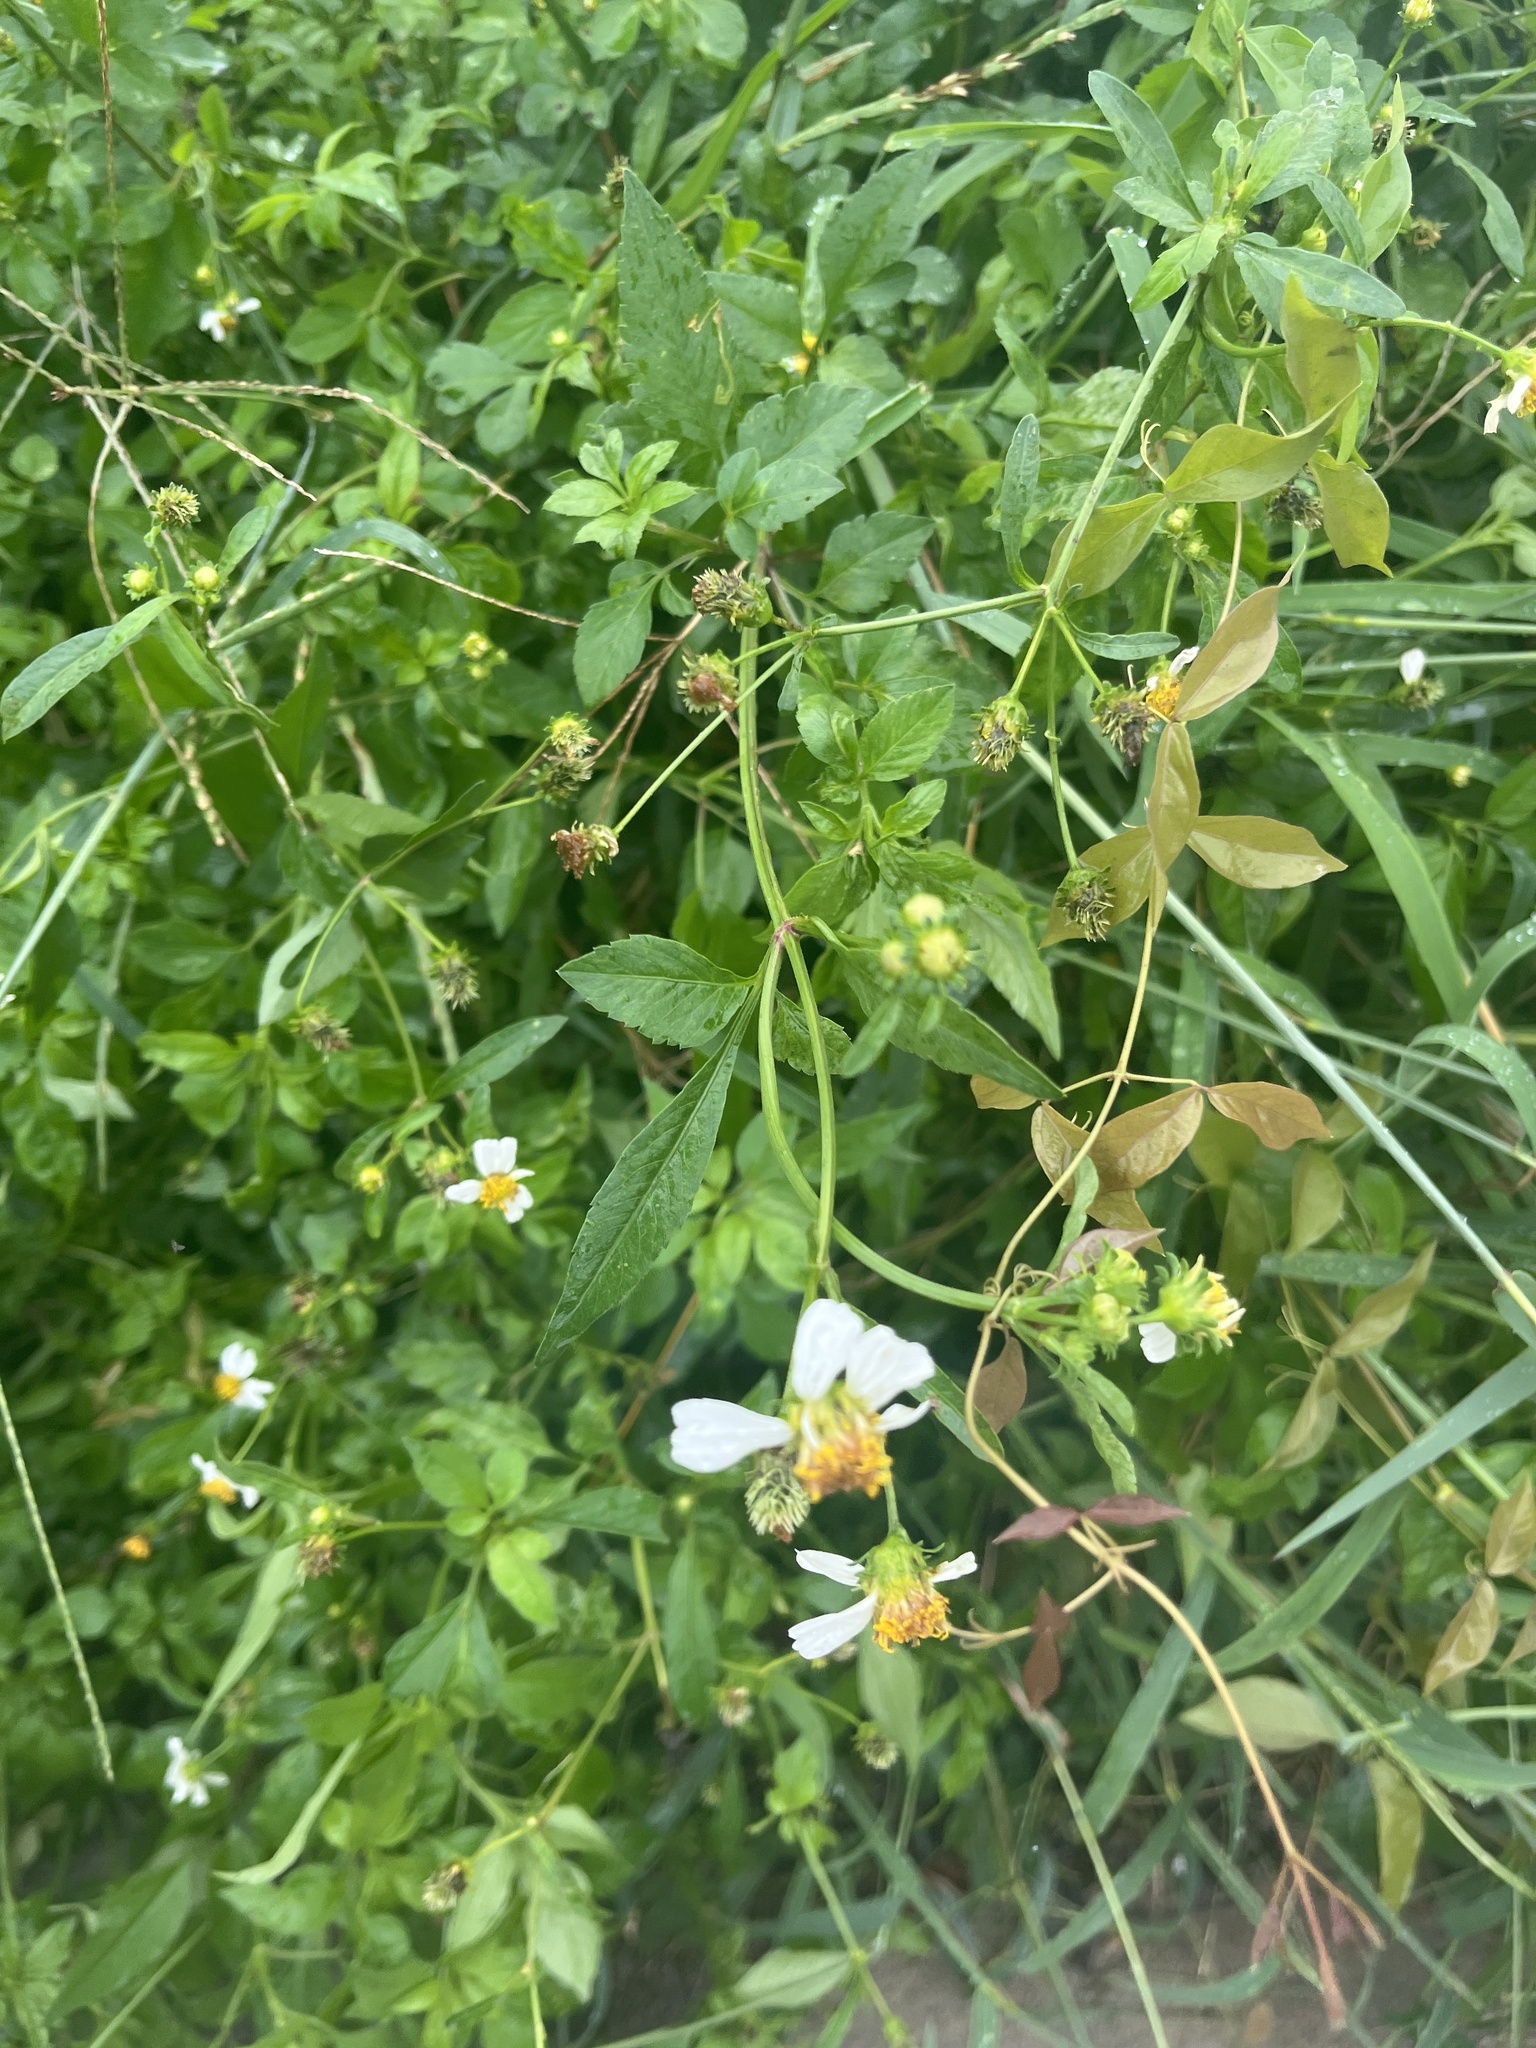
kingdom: Plantae
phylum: Tracheophyta
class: Magnoliopsida
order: Asterales
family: Asteraceae
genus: Bidens
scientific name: Bidens alba
